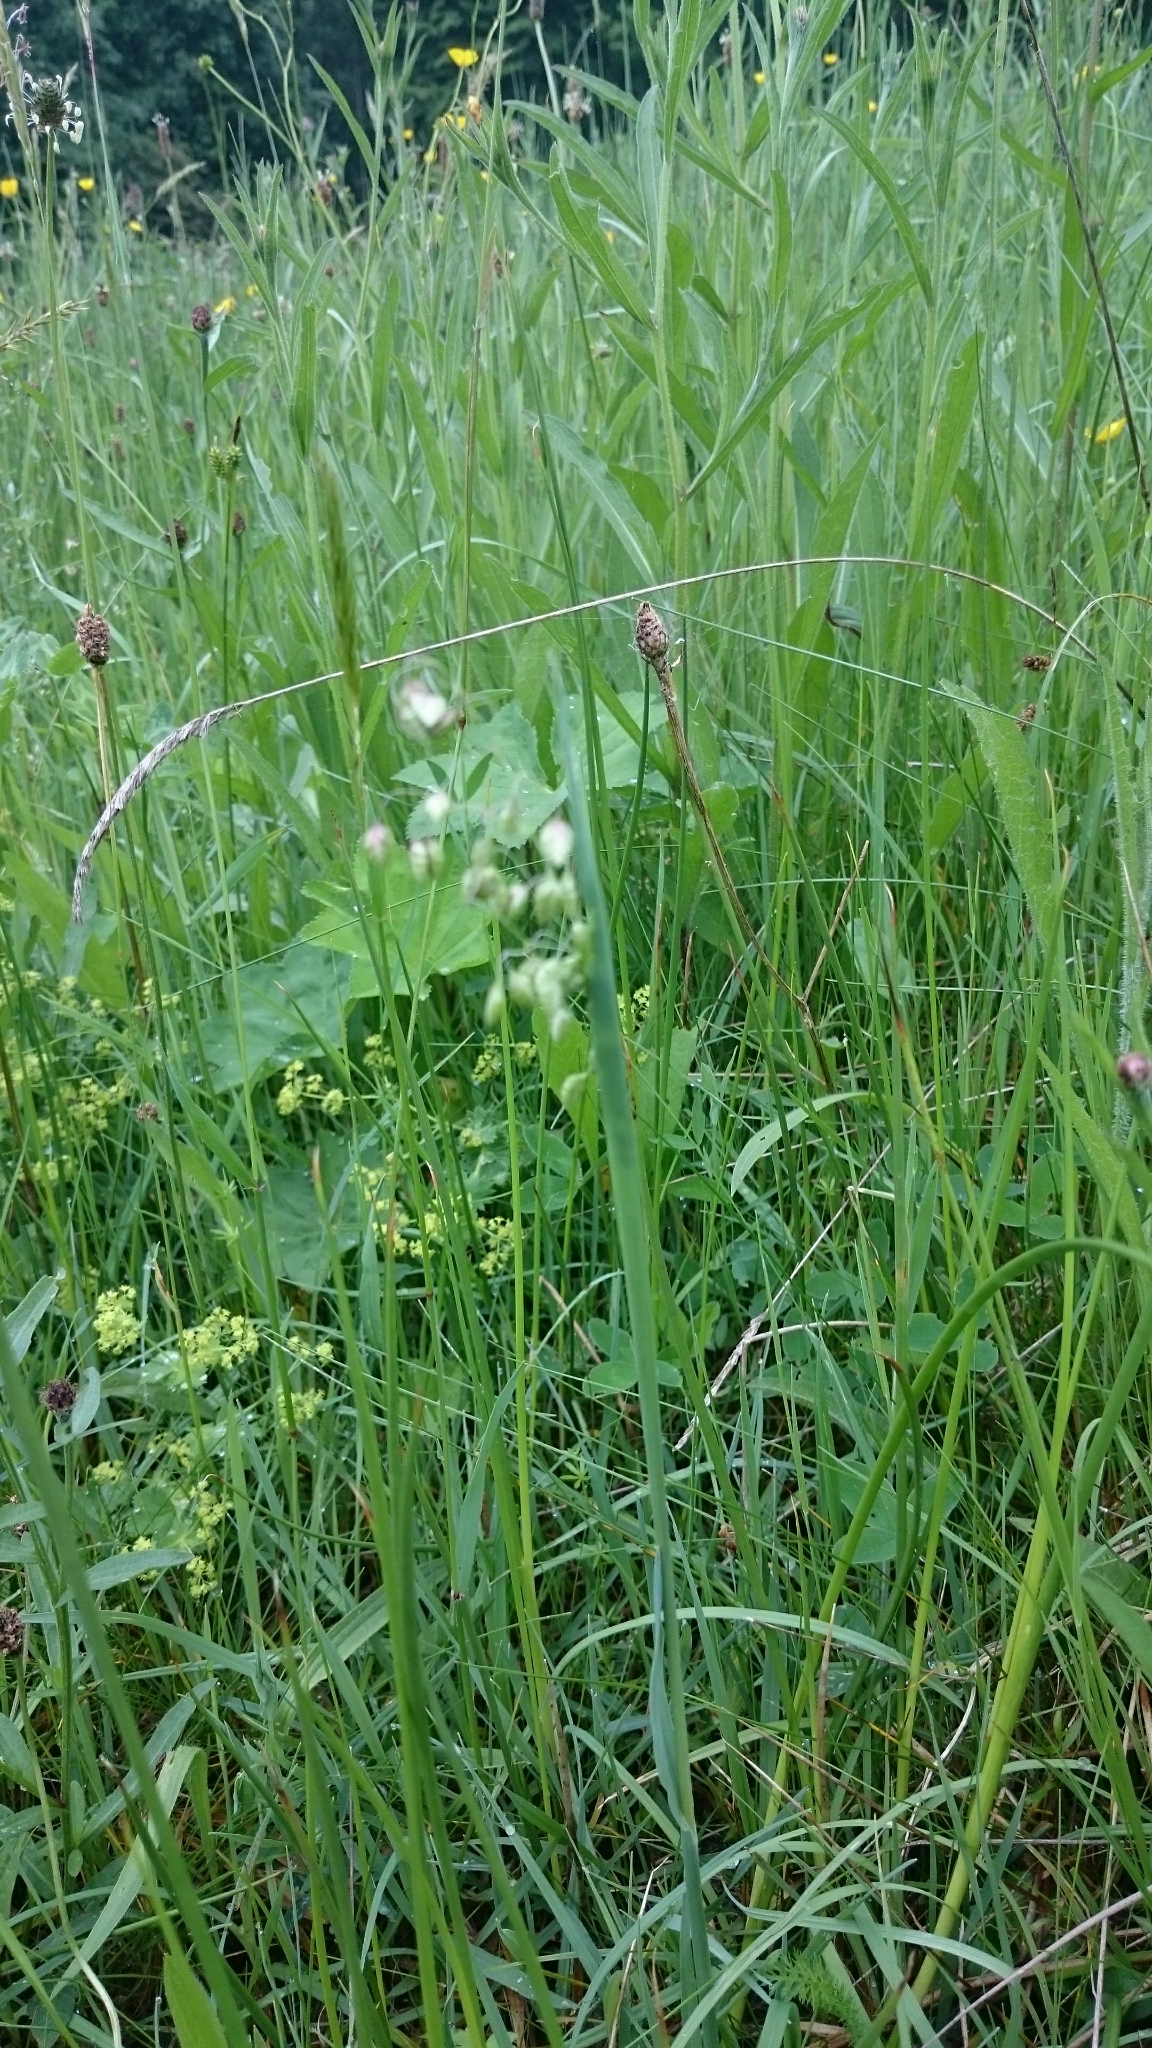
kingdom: Plantae
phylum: Tracheophyta
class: Liliopsida
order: Poales
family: Poaceae
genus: Briza
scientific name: Briza media
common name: Quaking grass
